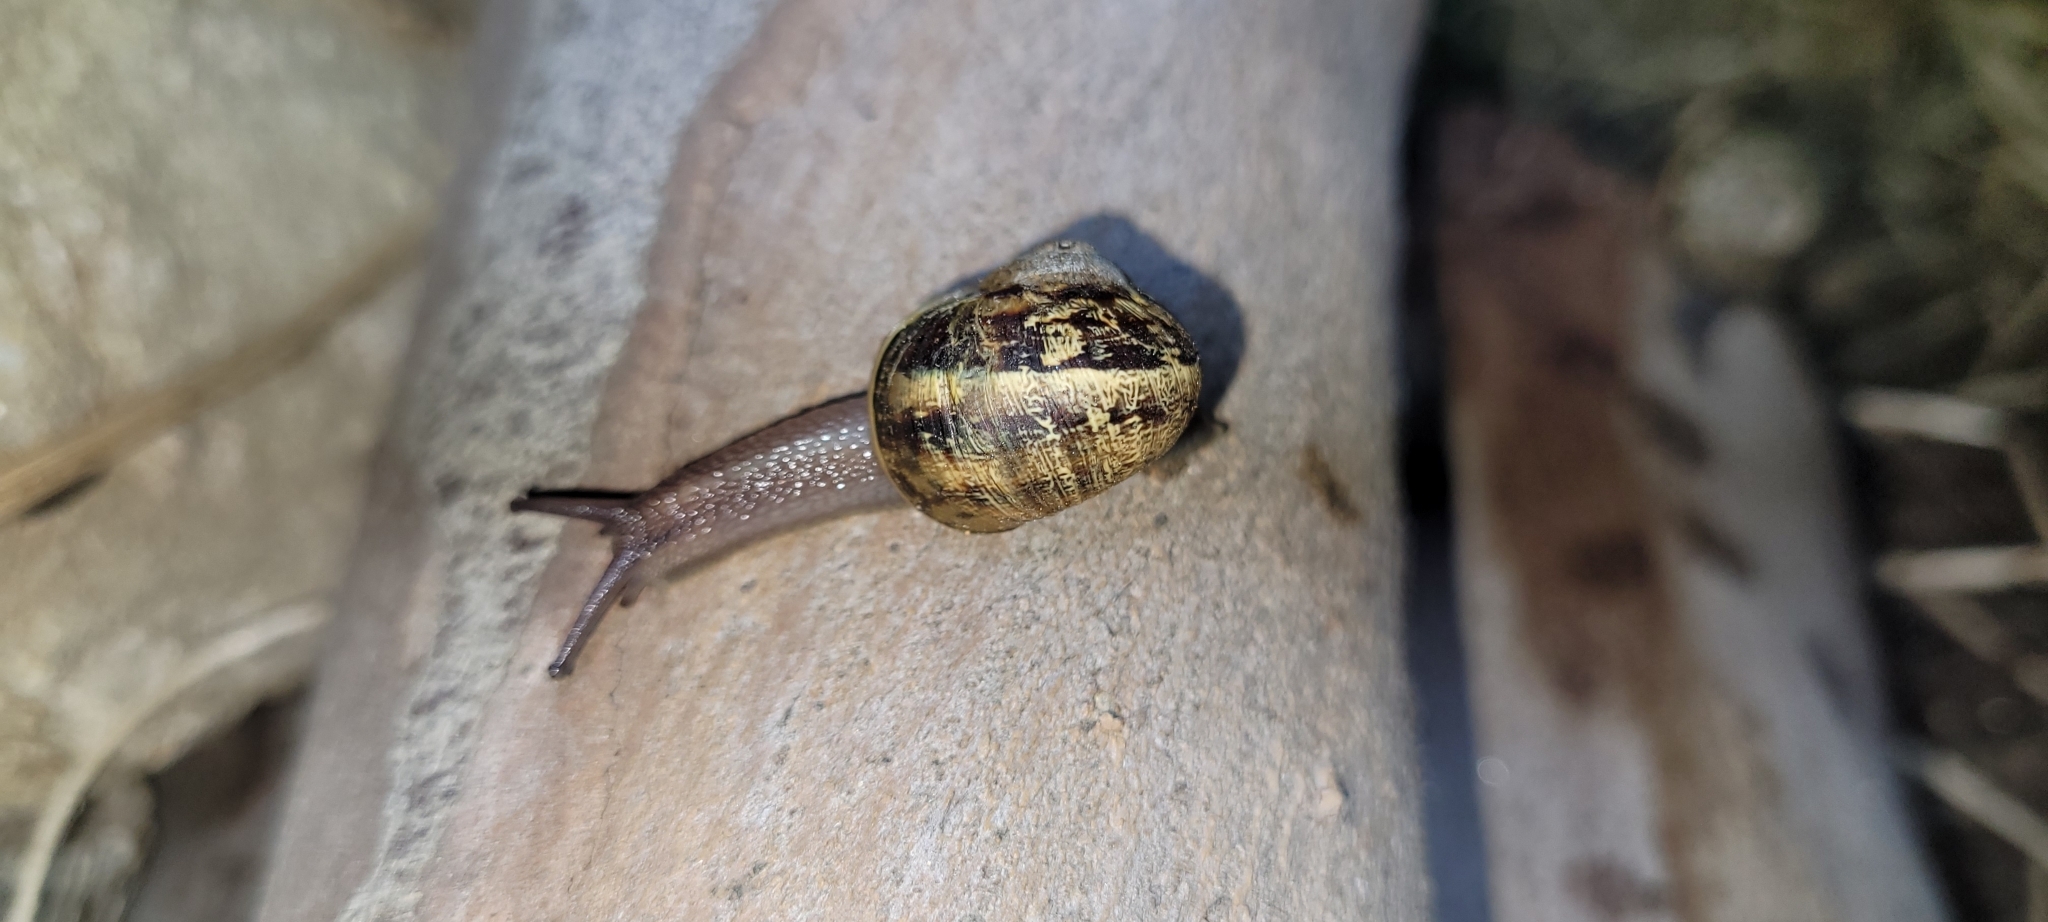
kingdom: Animalia
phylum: Mollusca
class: Gastropoda
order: Stylommatophora
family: Helicidae
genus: Cornu
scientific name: Cornu aspersum
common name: Brown garden snail
